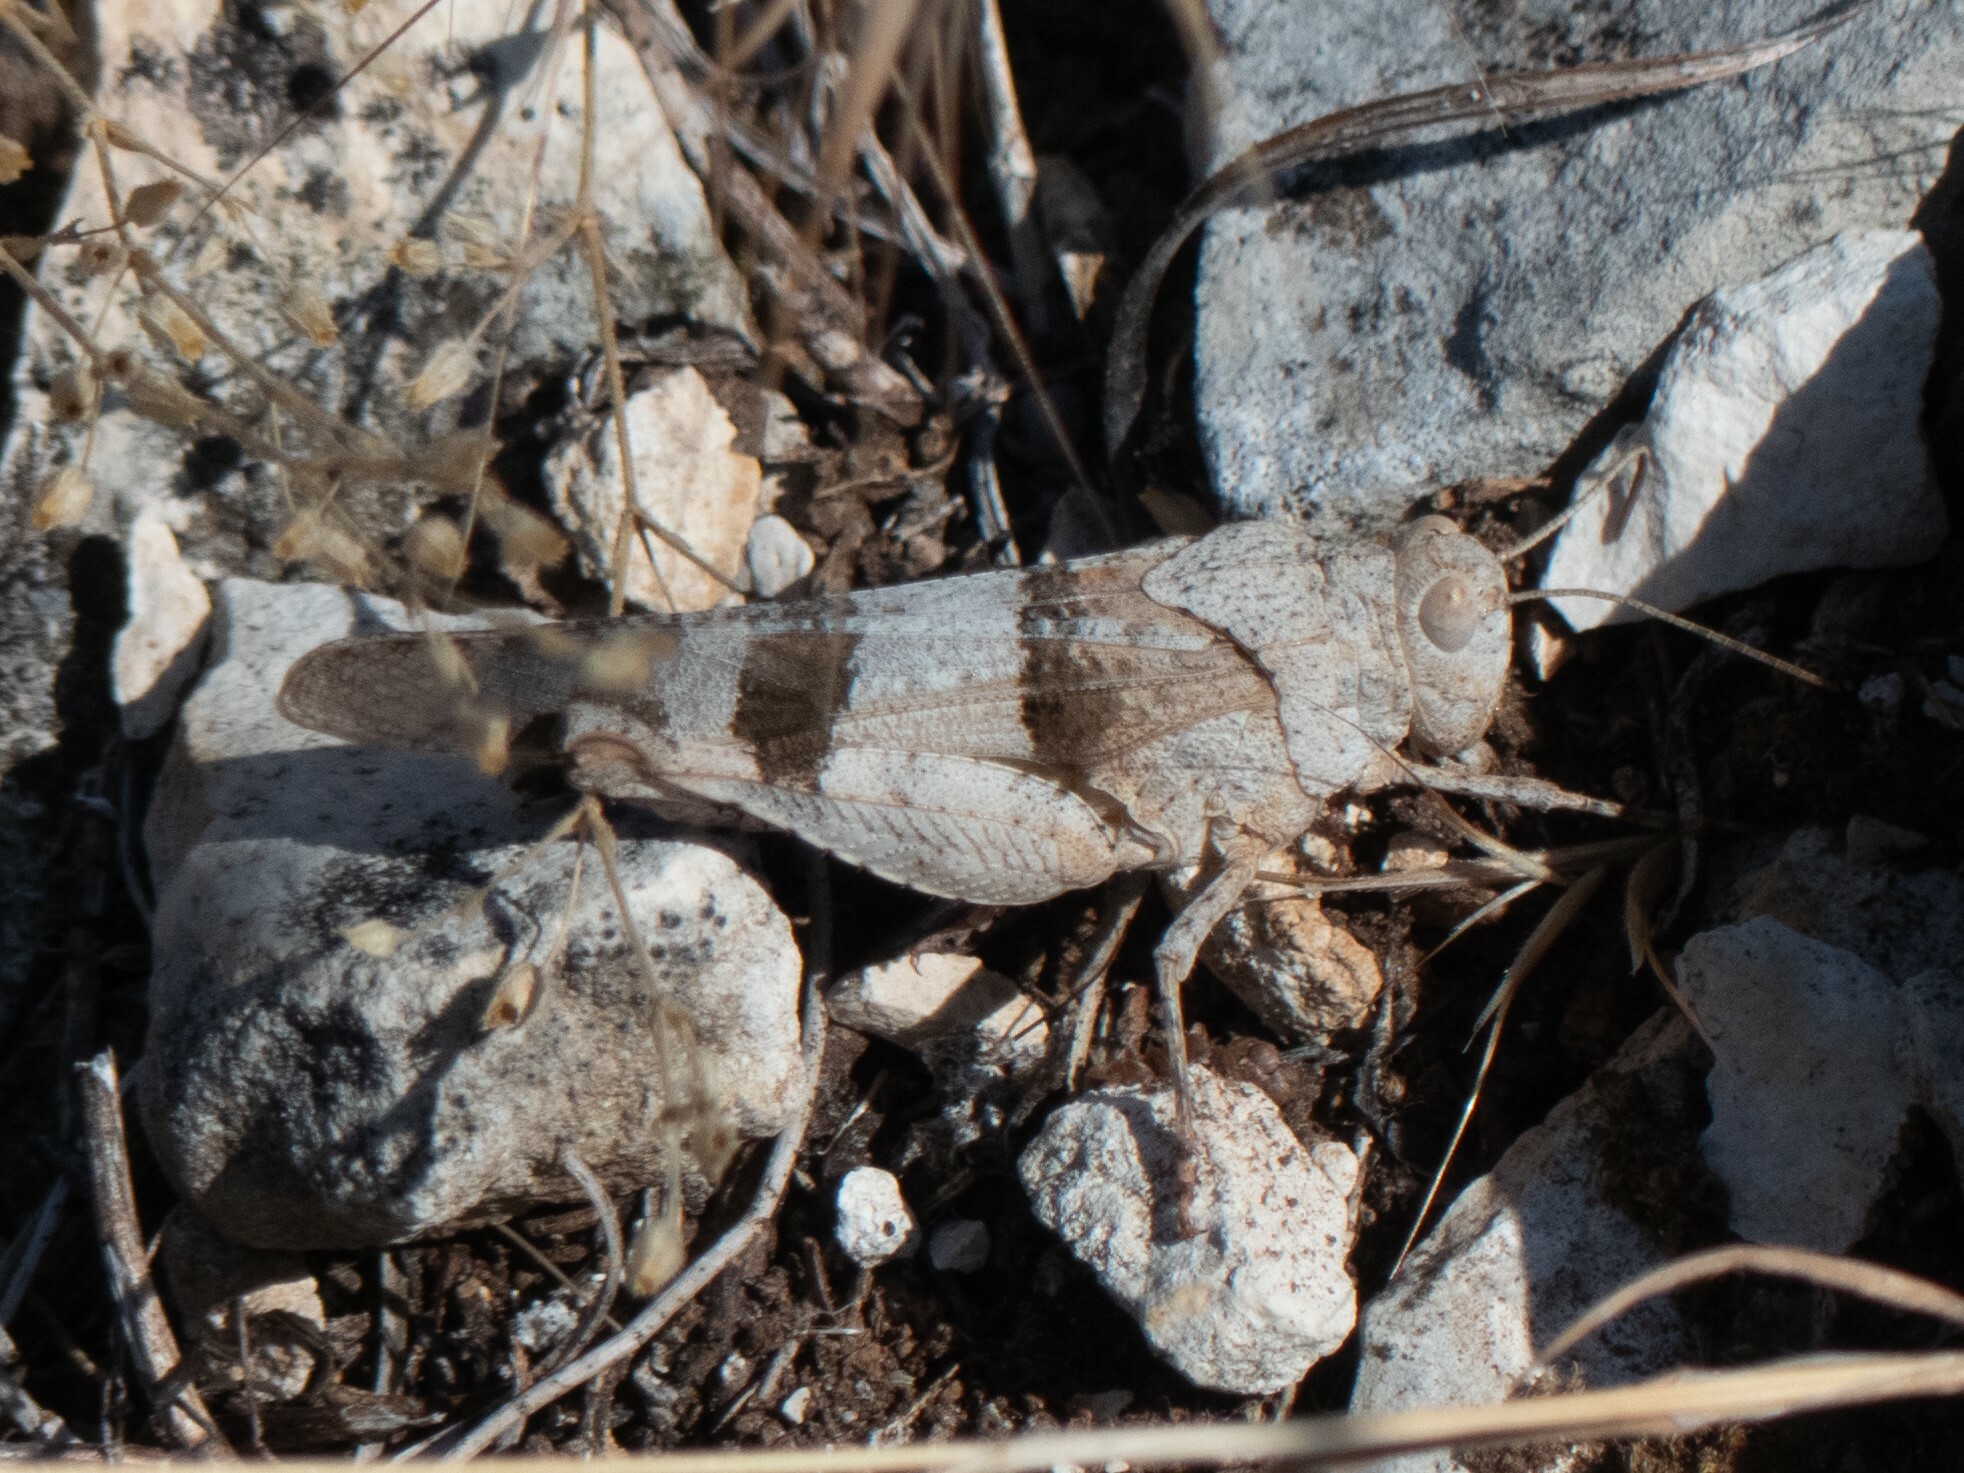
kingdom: Animalia
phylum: Arthropoda
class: Insecta
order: Orthoptera
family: Acrididae
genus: Oedipoda
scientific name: Oedipoda caerulescens
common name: Blue-winged grasshopper
